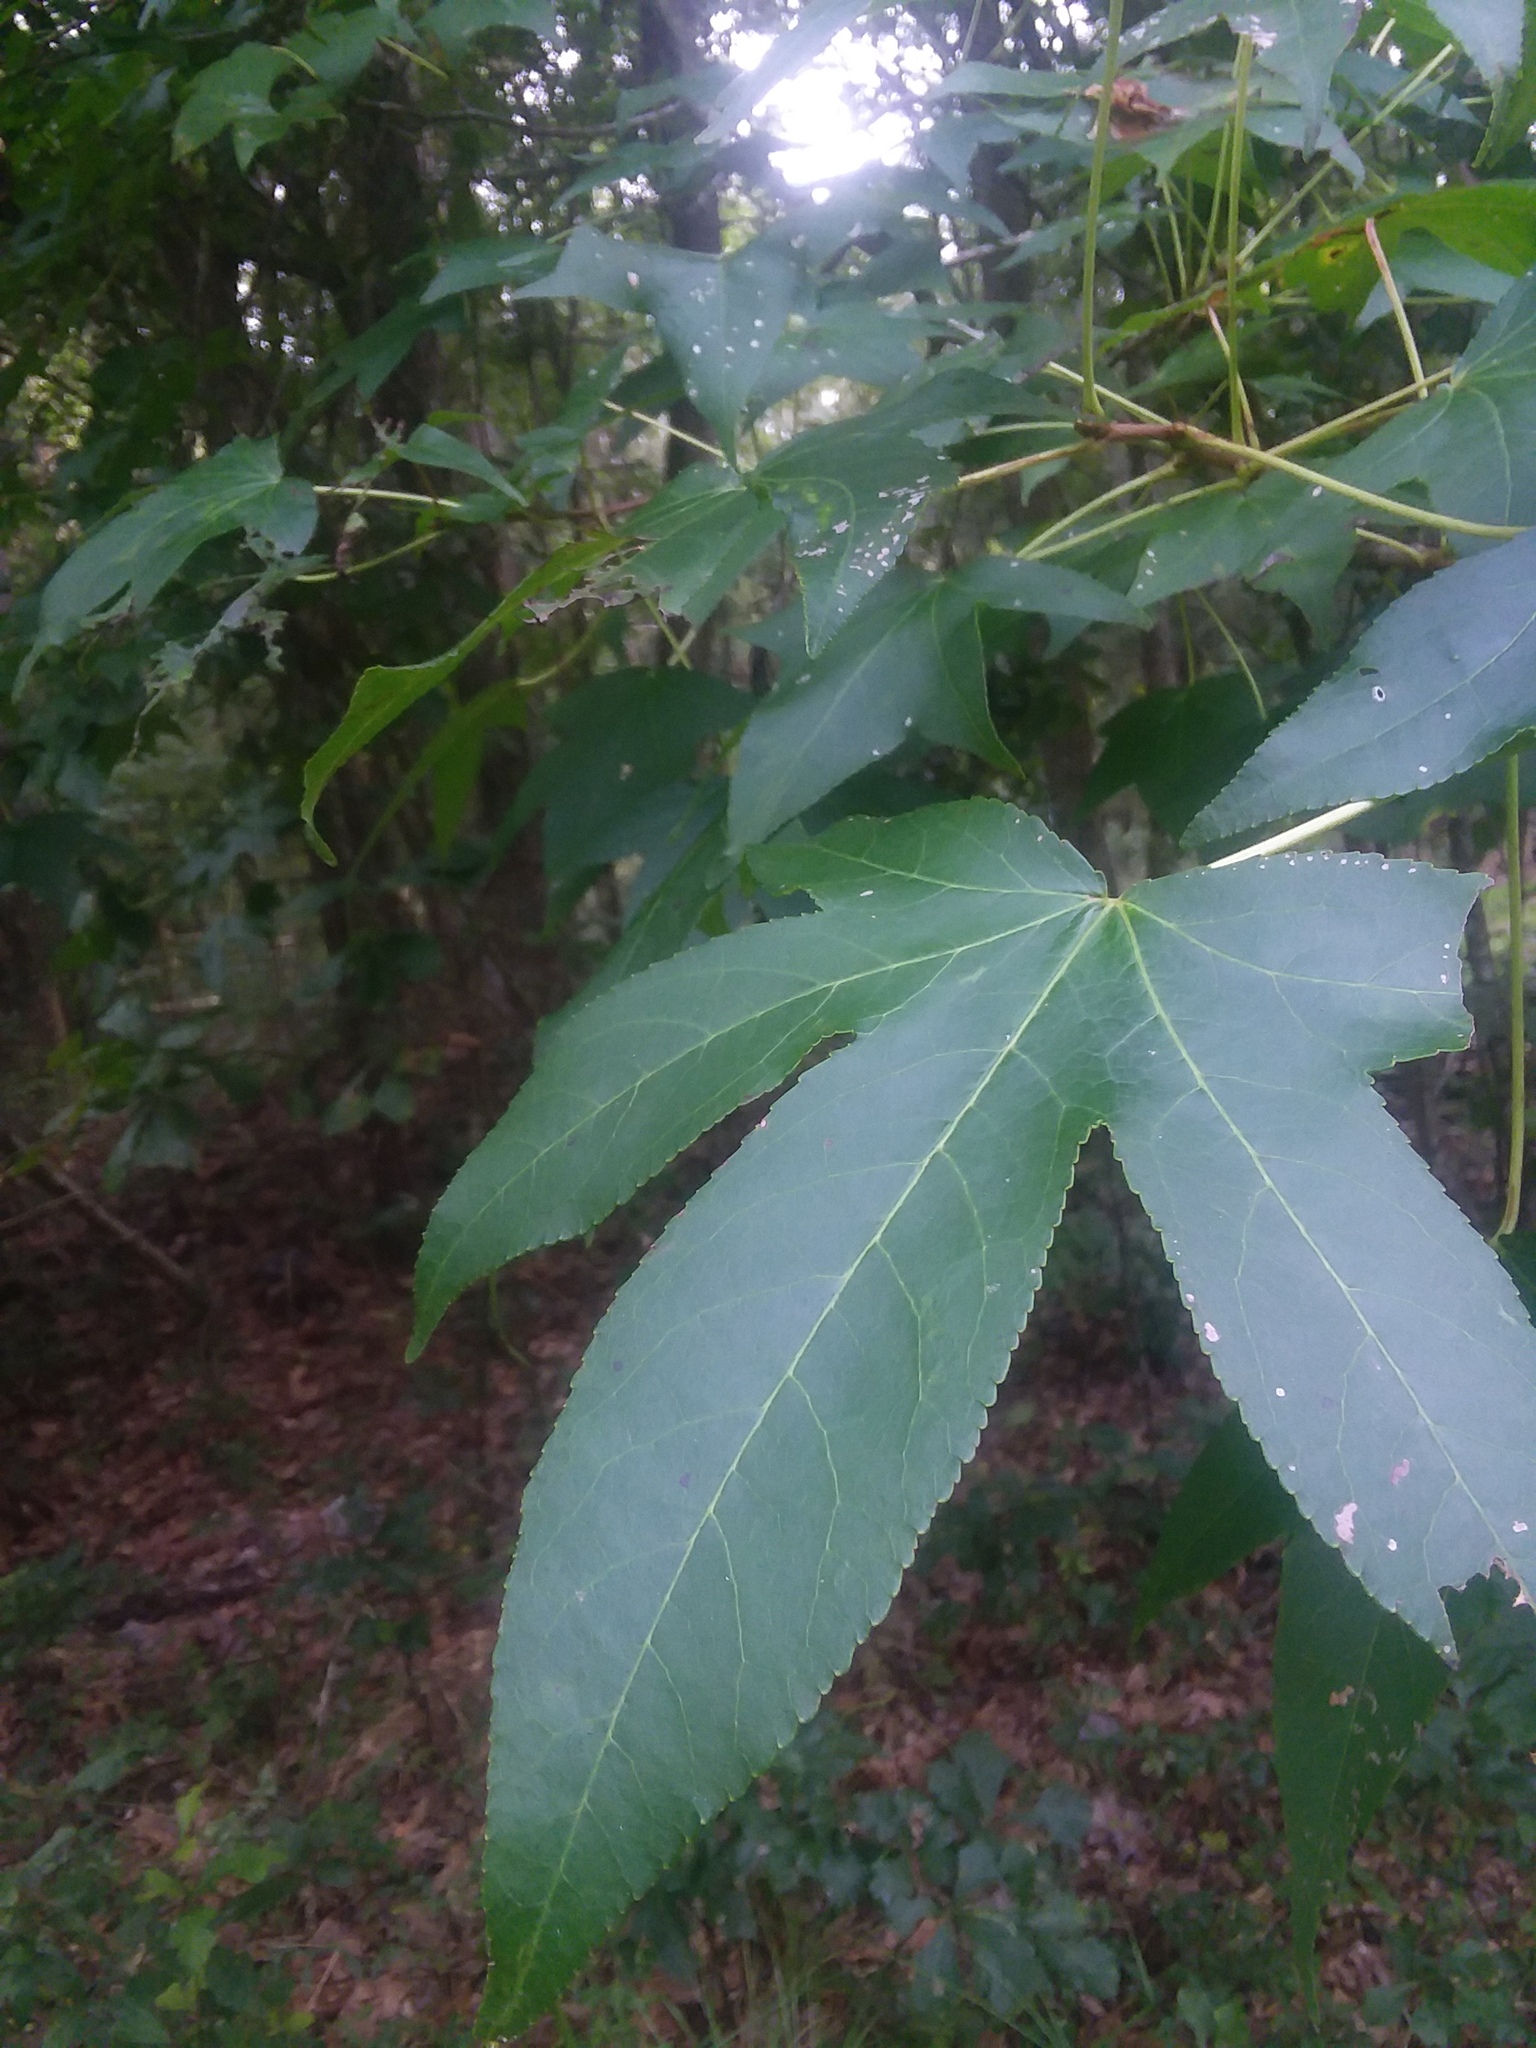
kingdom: Plantae
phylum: Tracheophyta
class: Magnoliopsida
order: Saxifragales
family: Altingiaceae
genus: Liquidambar
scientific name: Liquidambar styraciflua
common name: Sweet gum
